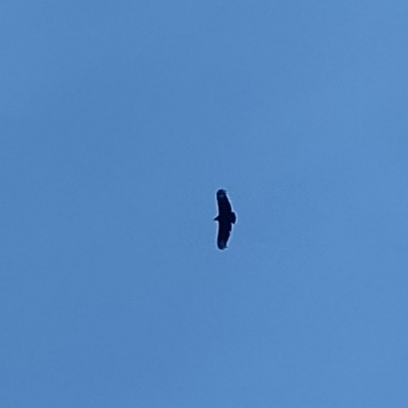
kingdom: Animalia
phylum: Chordata
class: Aves
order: Accipitriformes
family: Cathartidae
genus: Coragyps
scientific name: Coragyps atratus
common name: Black vulture
